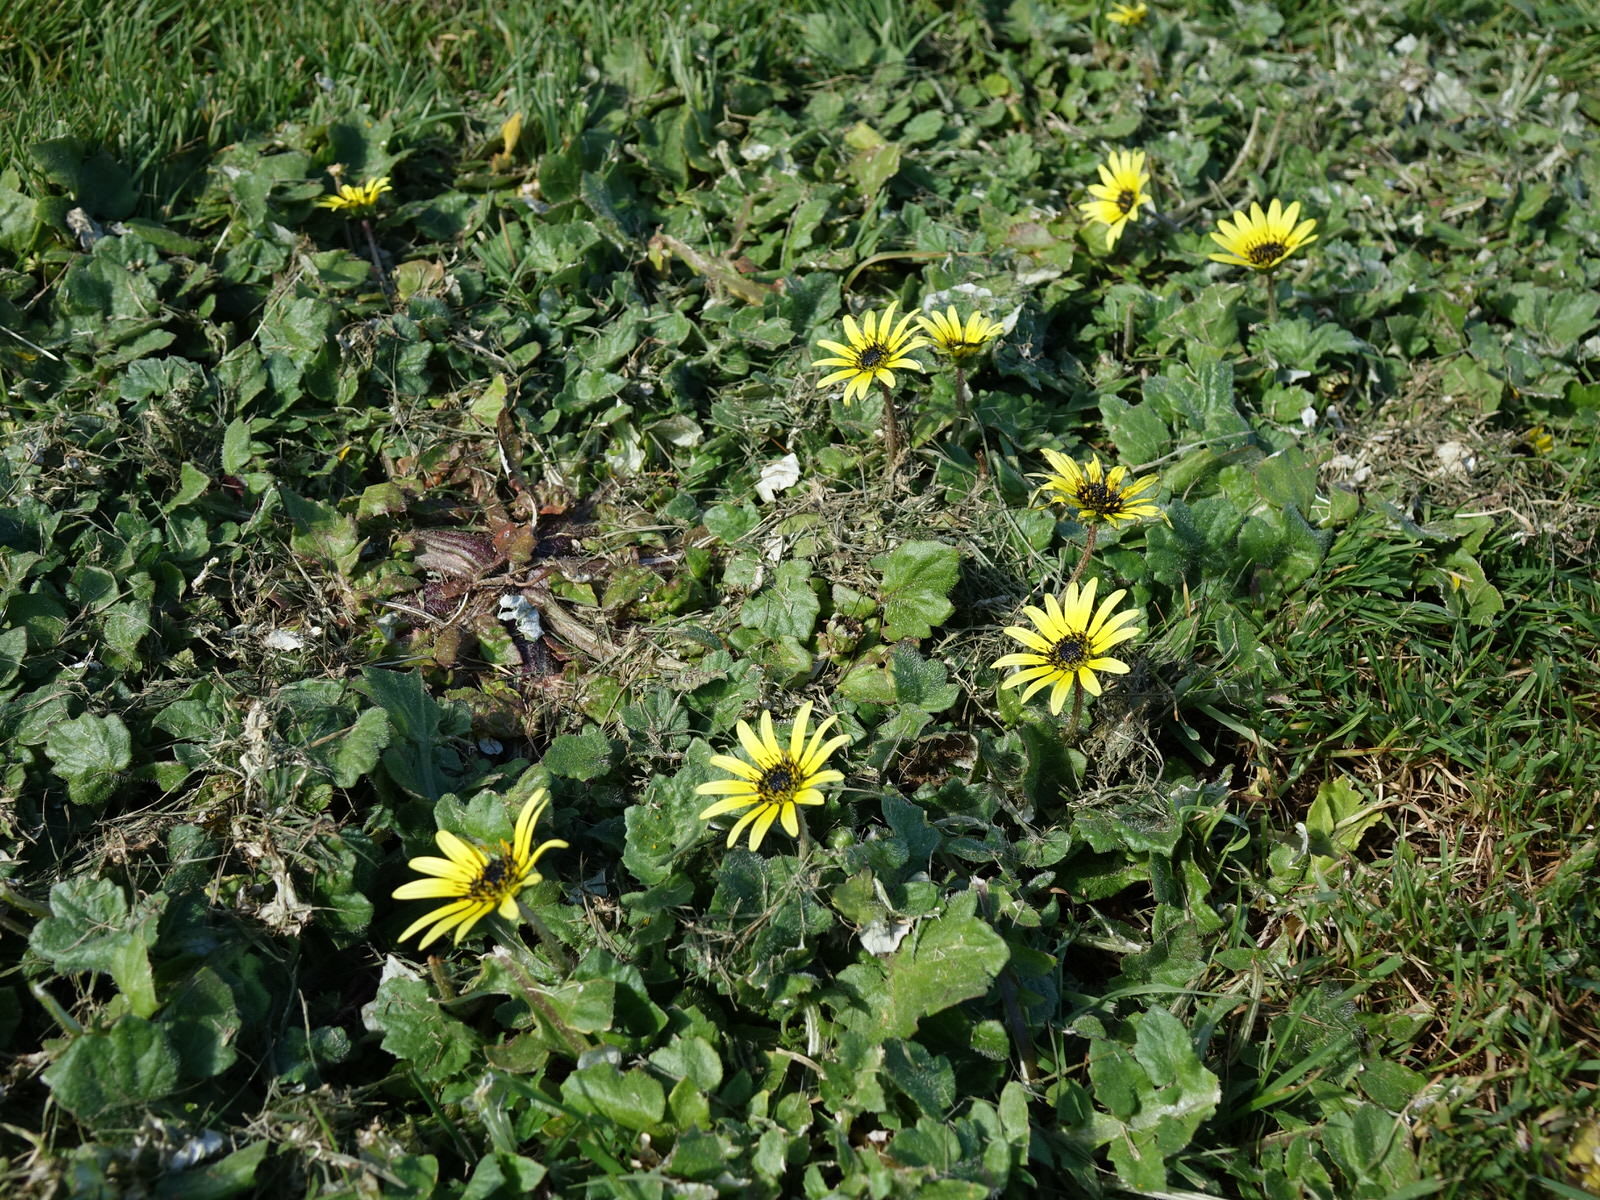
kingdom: Plantae
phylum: Tracheophyta
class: Magnoliopsida
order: Asterales
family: Asteraceae
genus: Arctotheca
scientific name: Arctotheca calendula
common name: Capeweed
